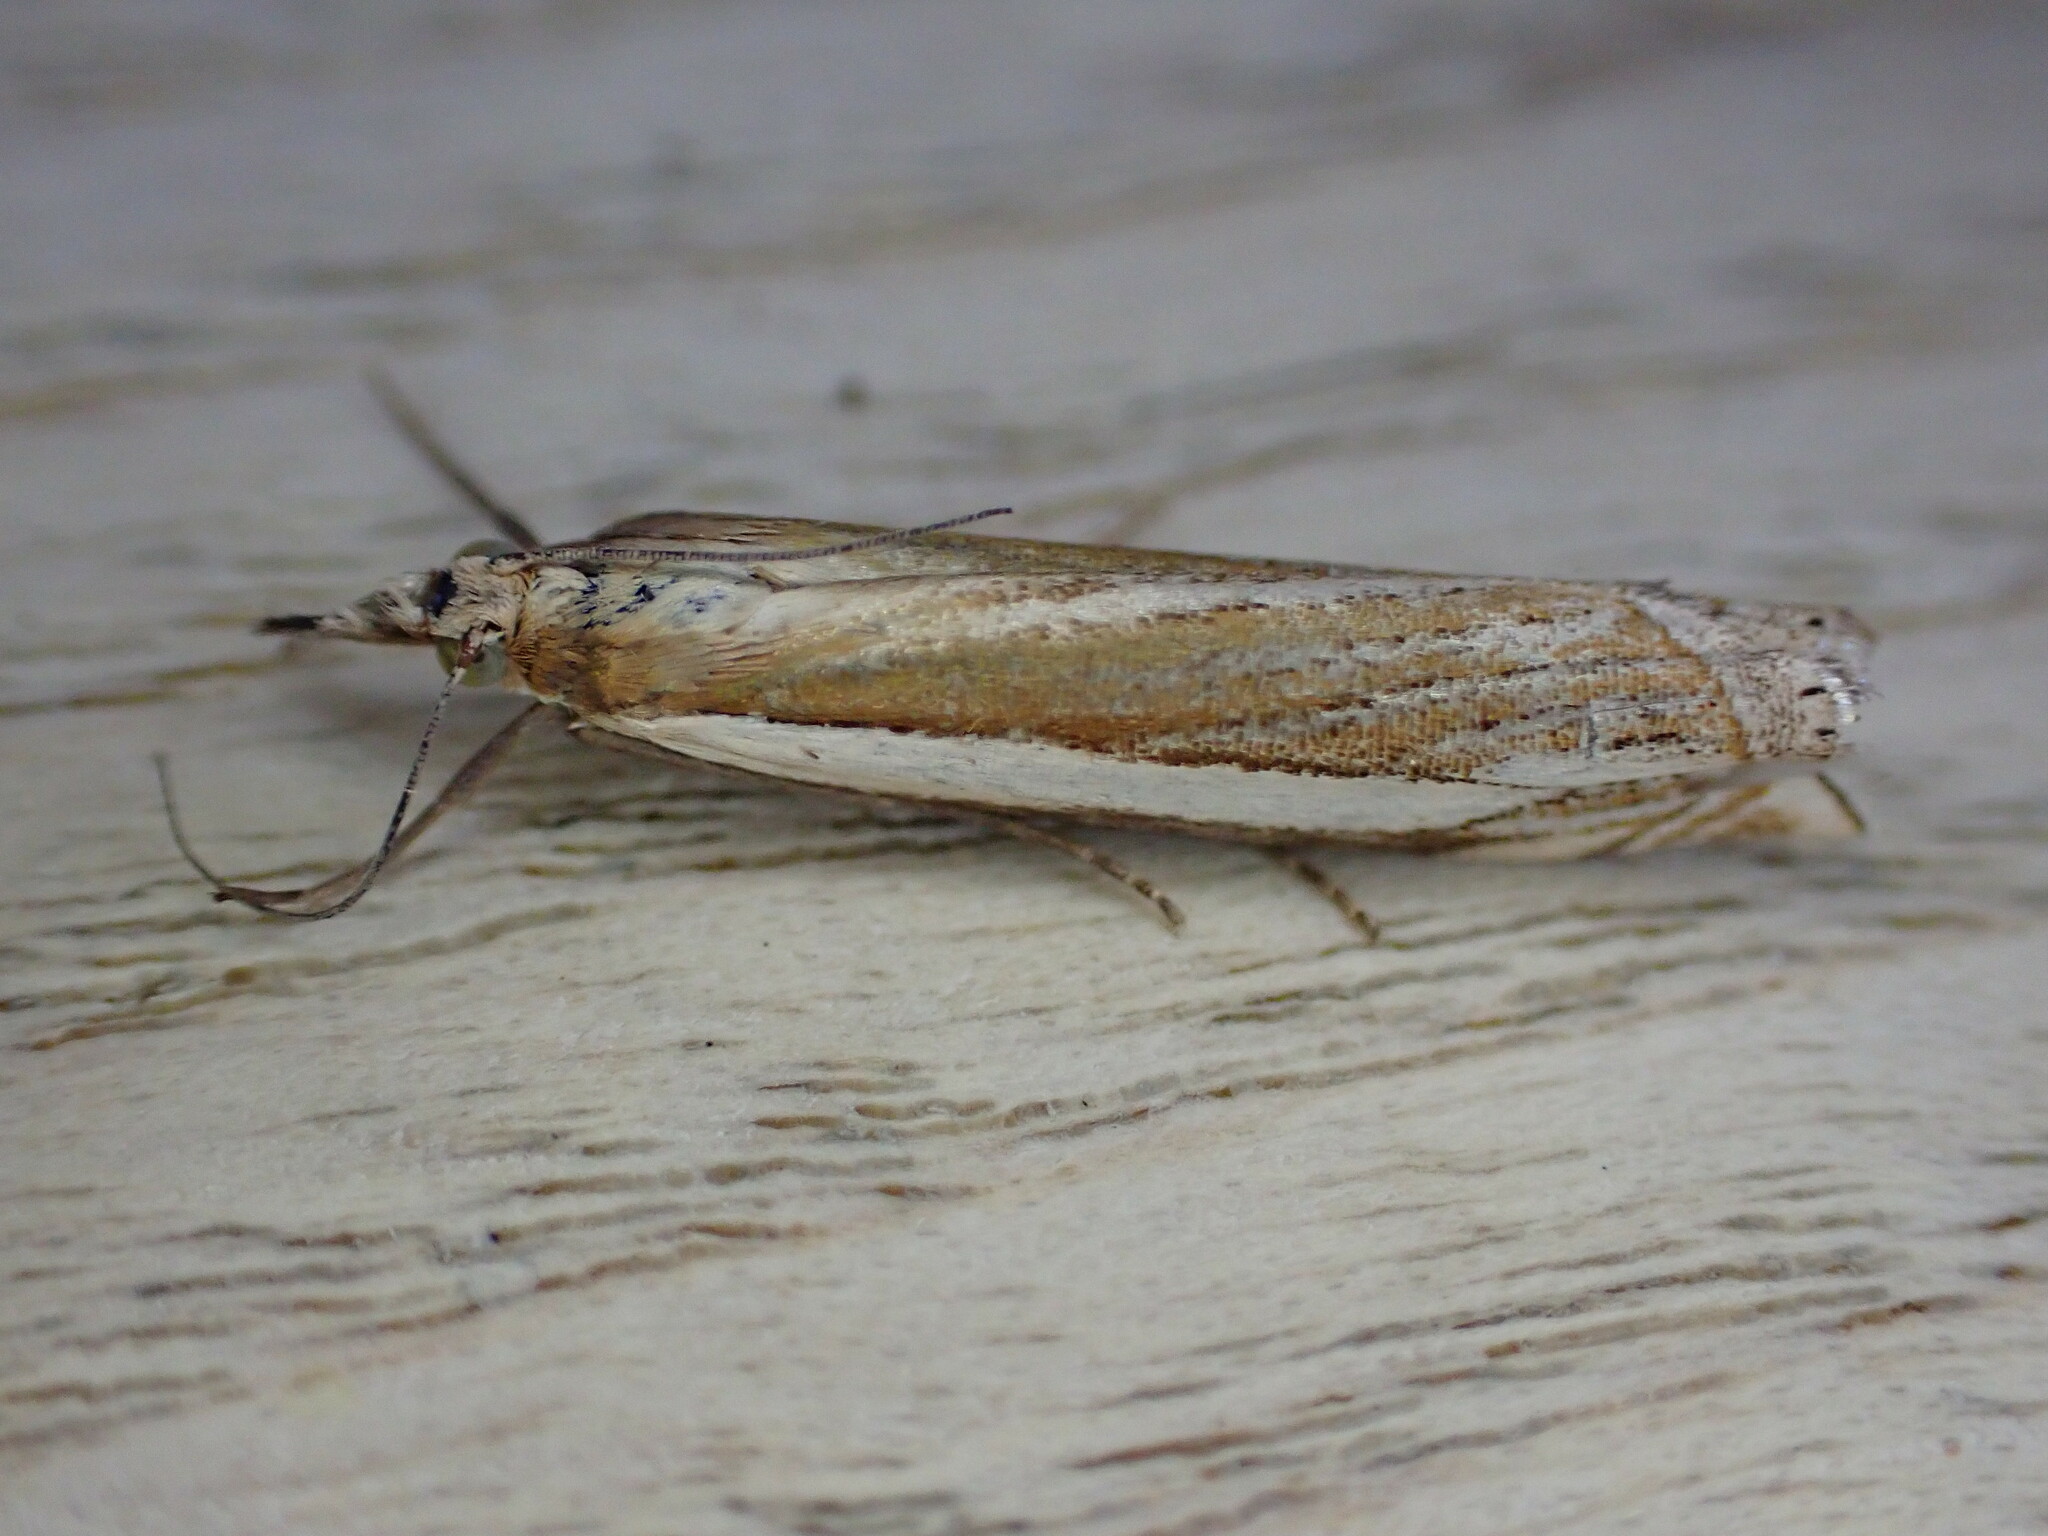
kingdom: Animalia
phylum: Arthropoda
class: Insecta
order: Lepidoptera
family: Crambidae
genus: Crambus
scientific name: Crambus pascuella
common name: Inlaid grass-veneer
